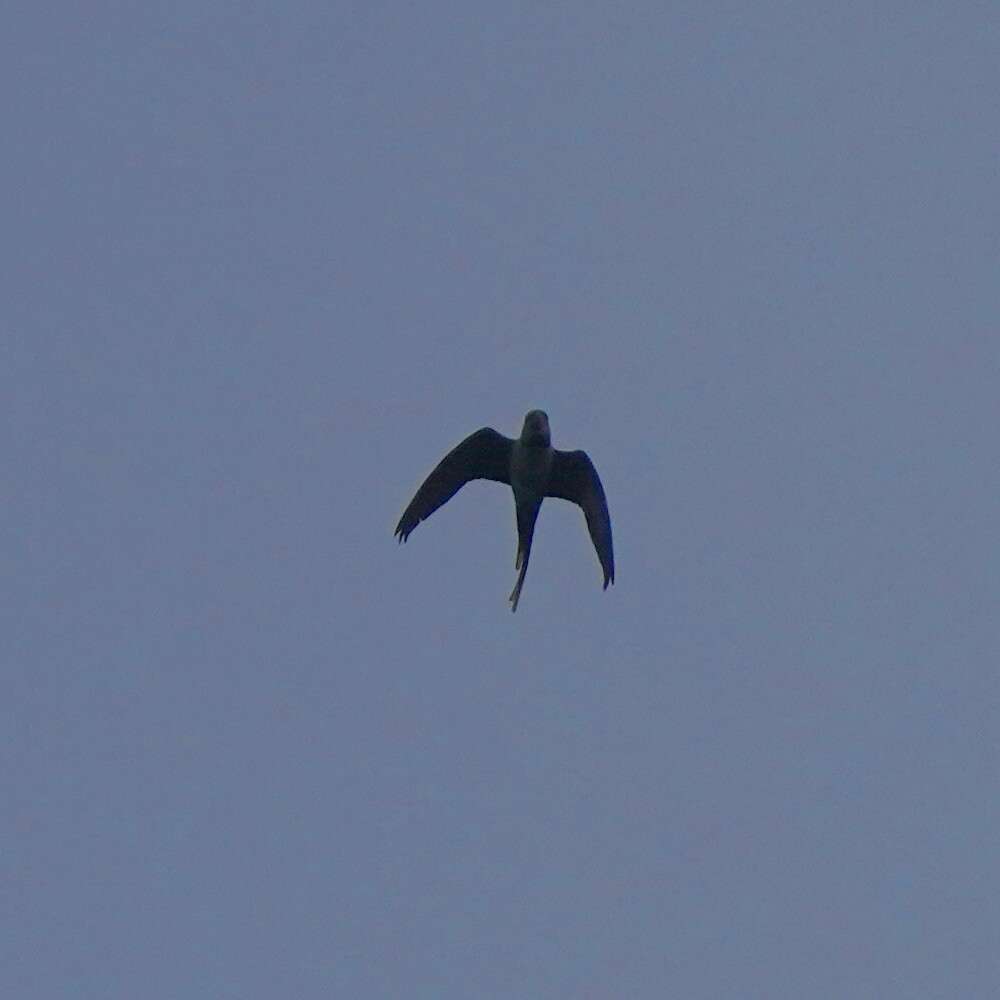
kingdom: Animalia
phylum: Chordata
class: Aves
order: Psittaciformes
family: Psittacidae
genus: Psittacula
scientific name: Psittacula krameri
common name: Rose-ringed parakeet
